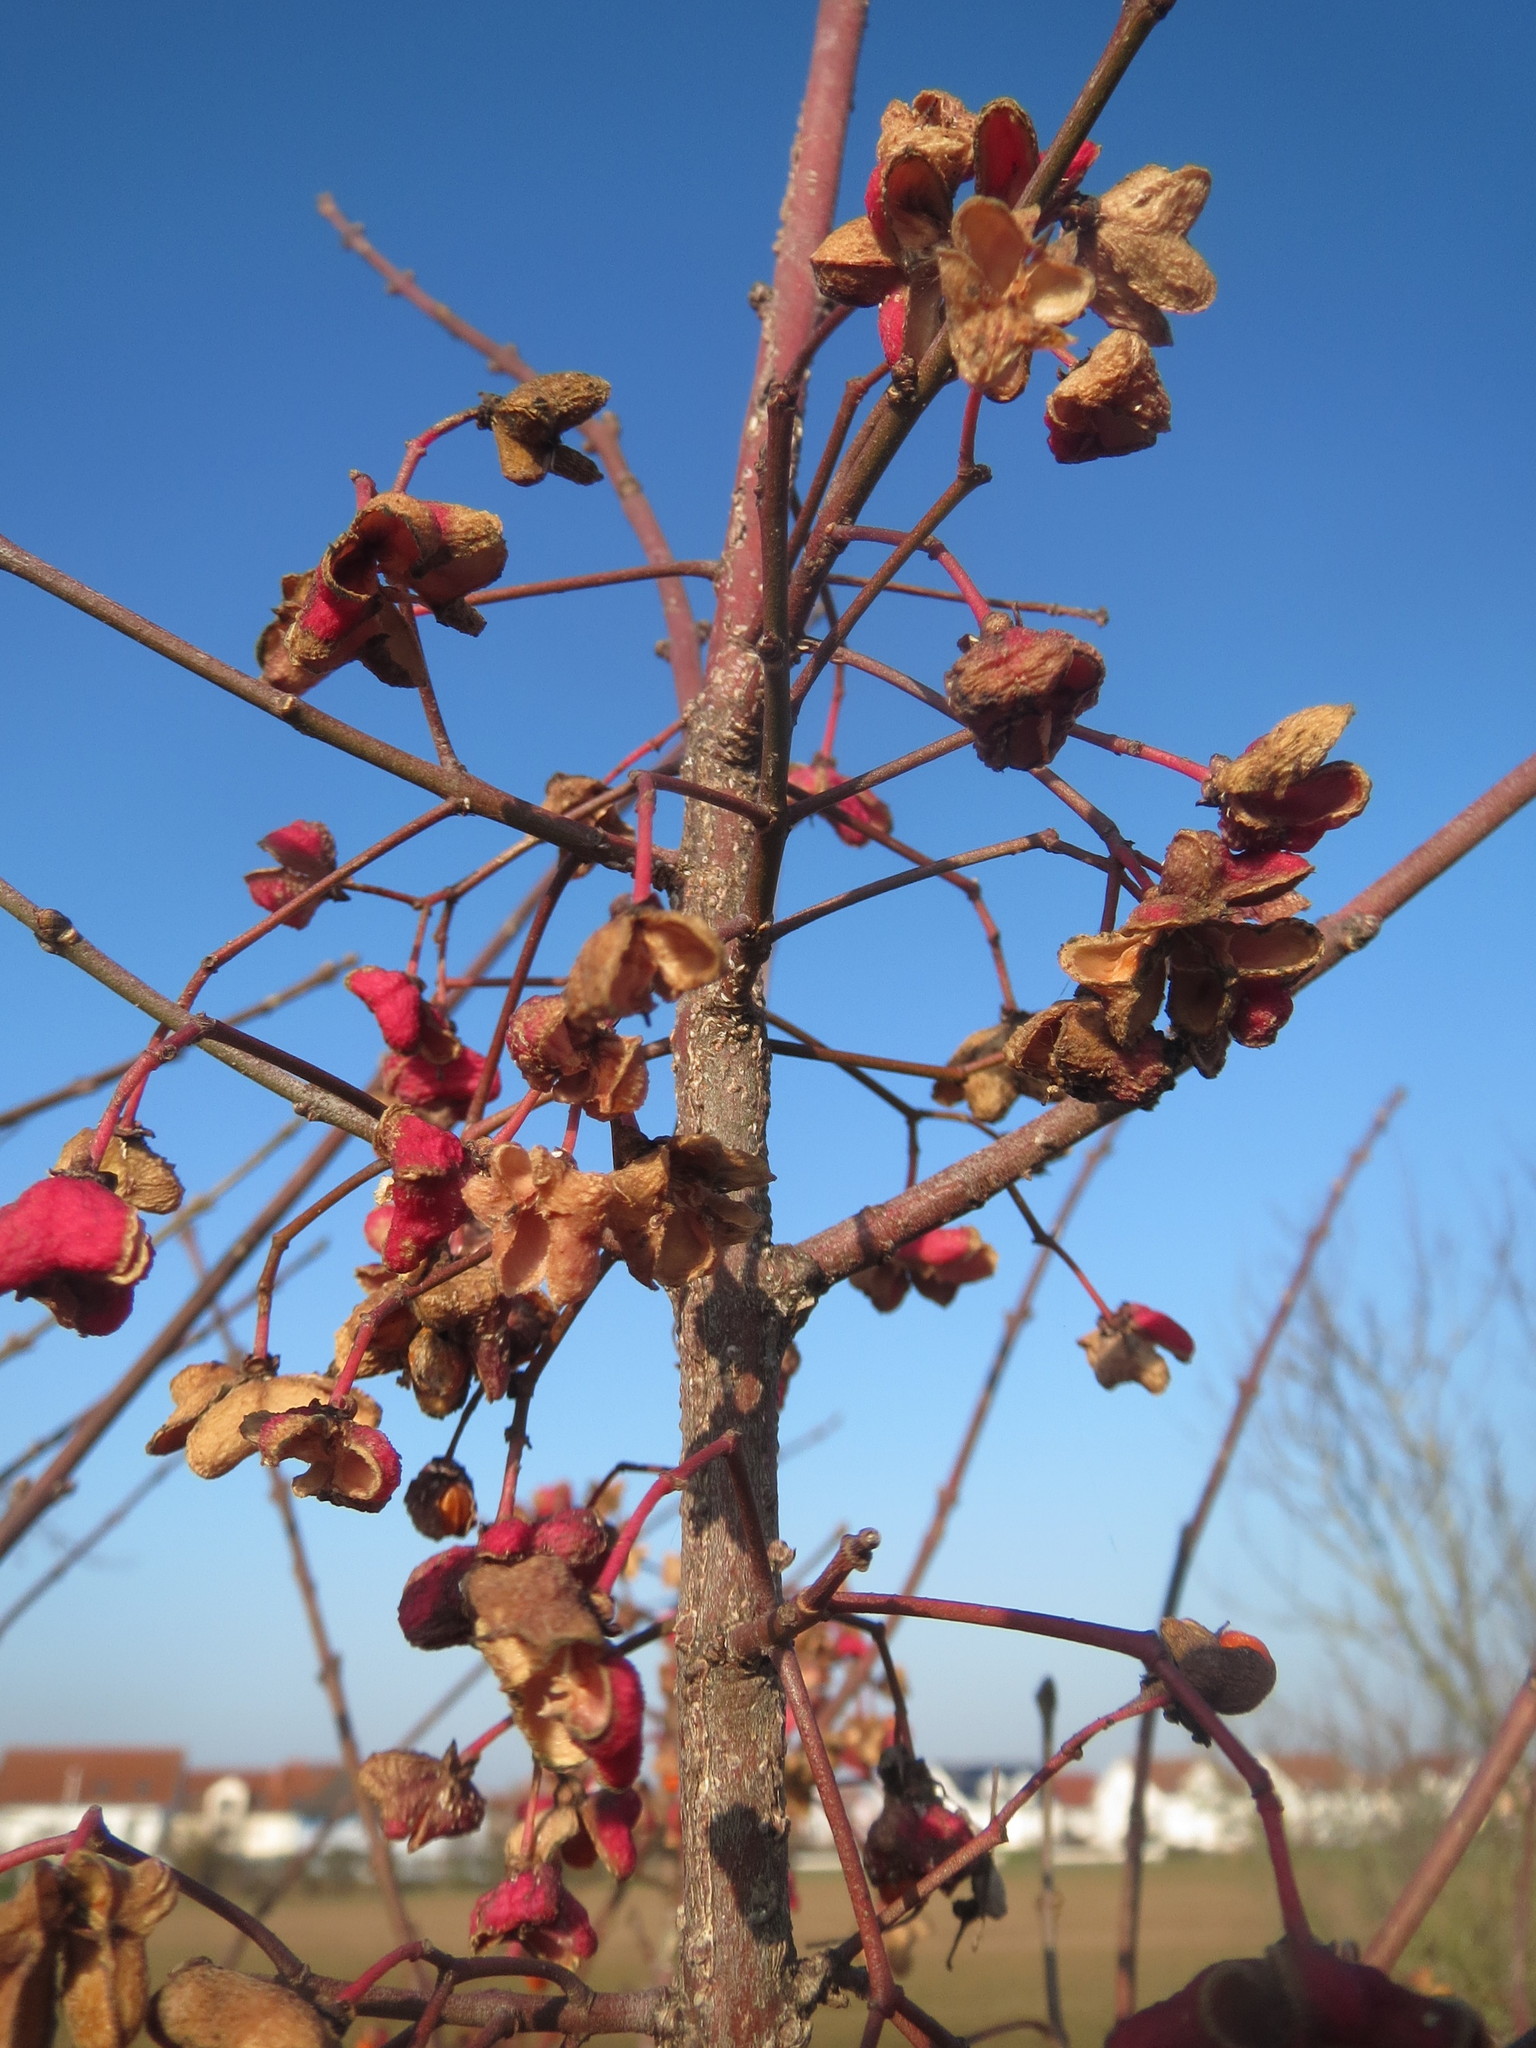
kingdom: Plantae
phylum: Tracheophyta
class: Magnoliopsida
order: Celastrales
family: Celastraceae
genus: Euonymus
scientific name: Euonymus europaeus
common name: Spindle
